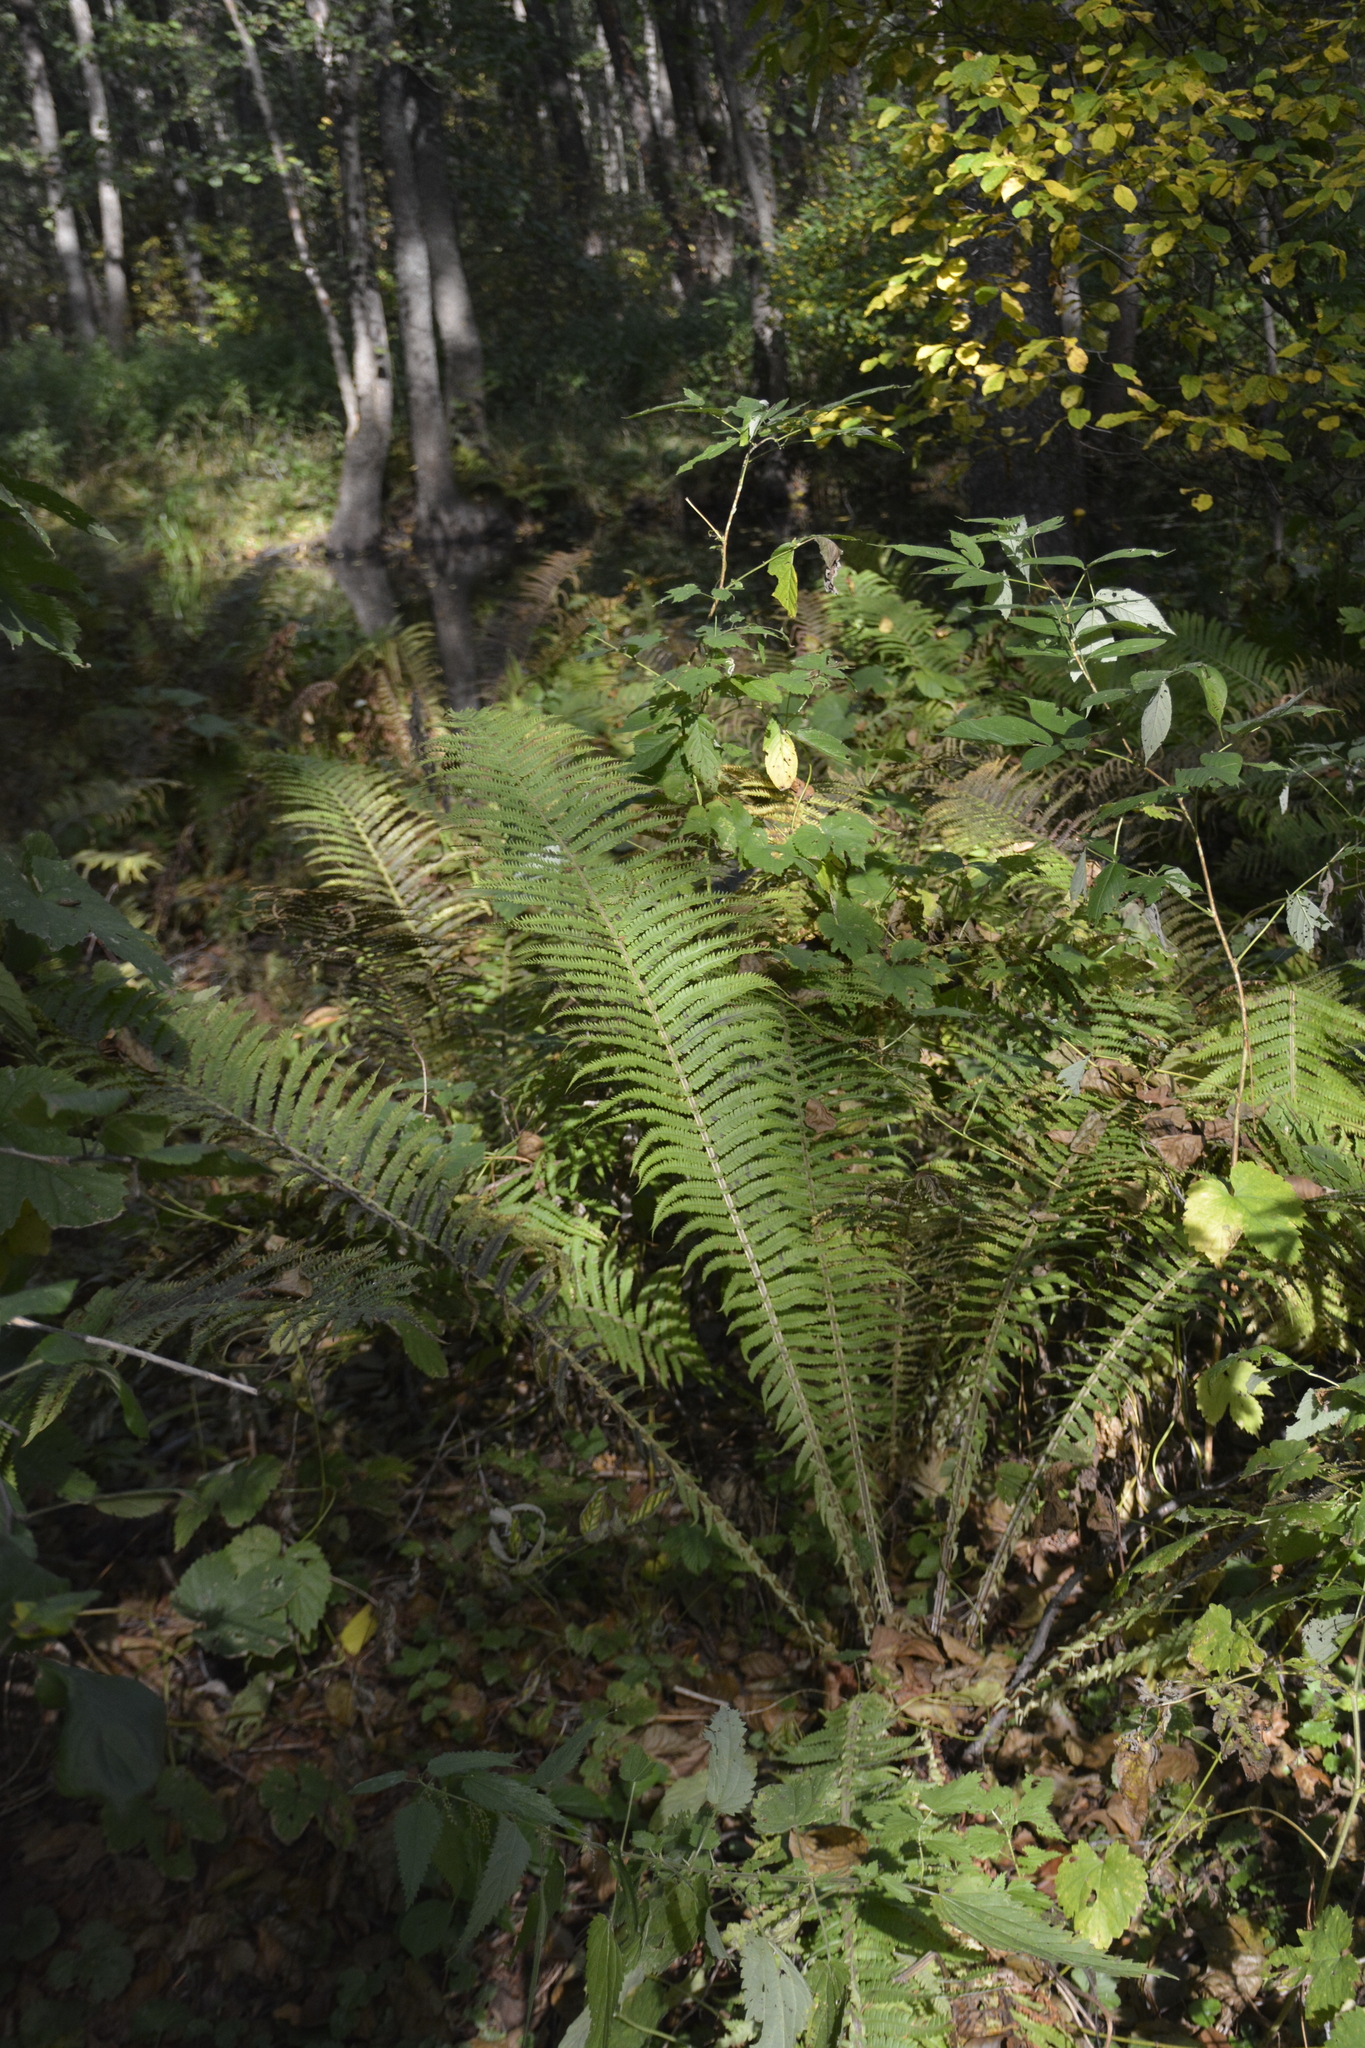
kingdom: Plantae
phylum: Tracheophyta
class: Polypodiopsida
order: Polypodiales
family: Onocleaceae
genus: Matteuccia
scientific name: Matteuccia struthiopteris
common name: Ostrich fern
